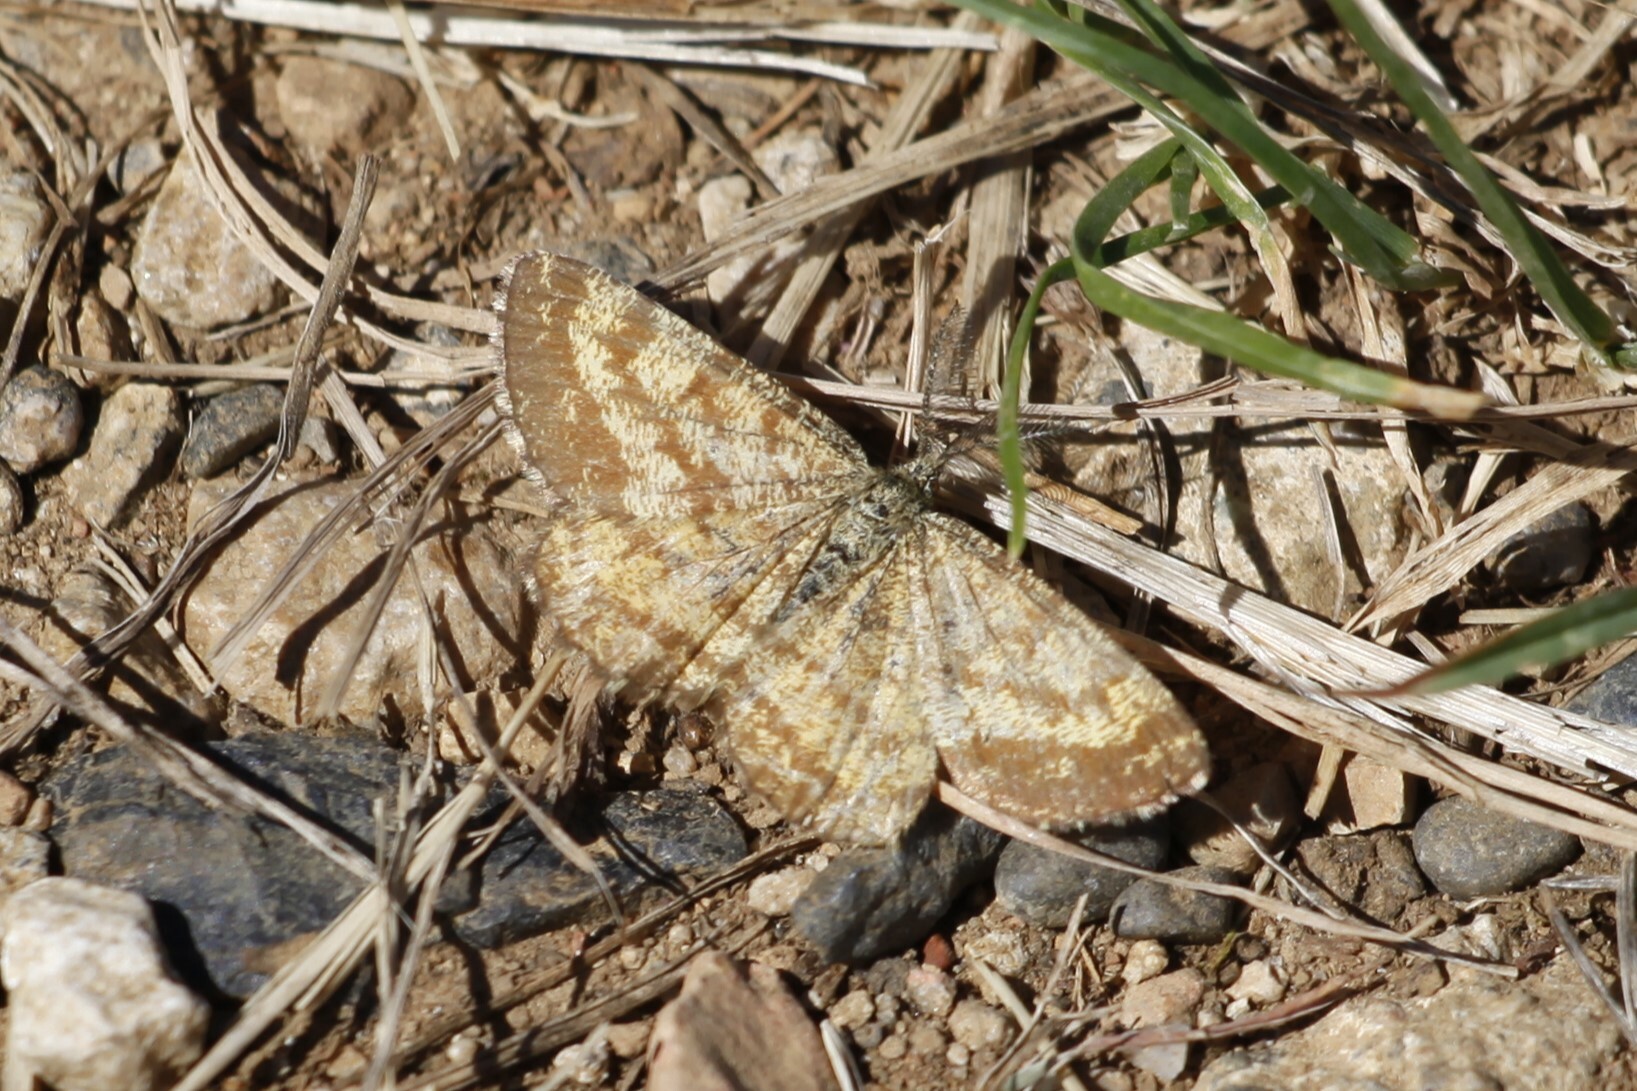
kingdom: Animalia
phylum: Arthropoda
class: Insecta
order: Lepidoptera
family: Geometridae
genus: Ematurga
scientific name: Ematurga atomaria
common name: Common heath
